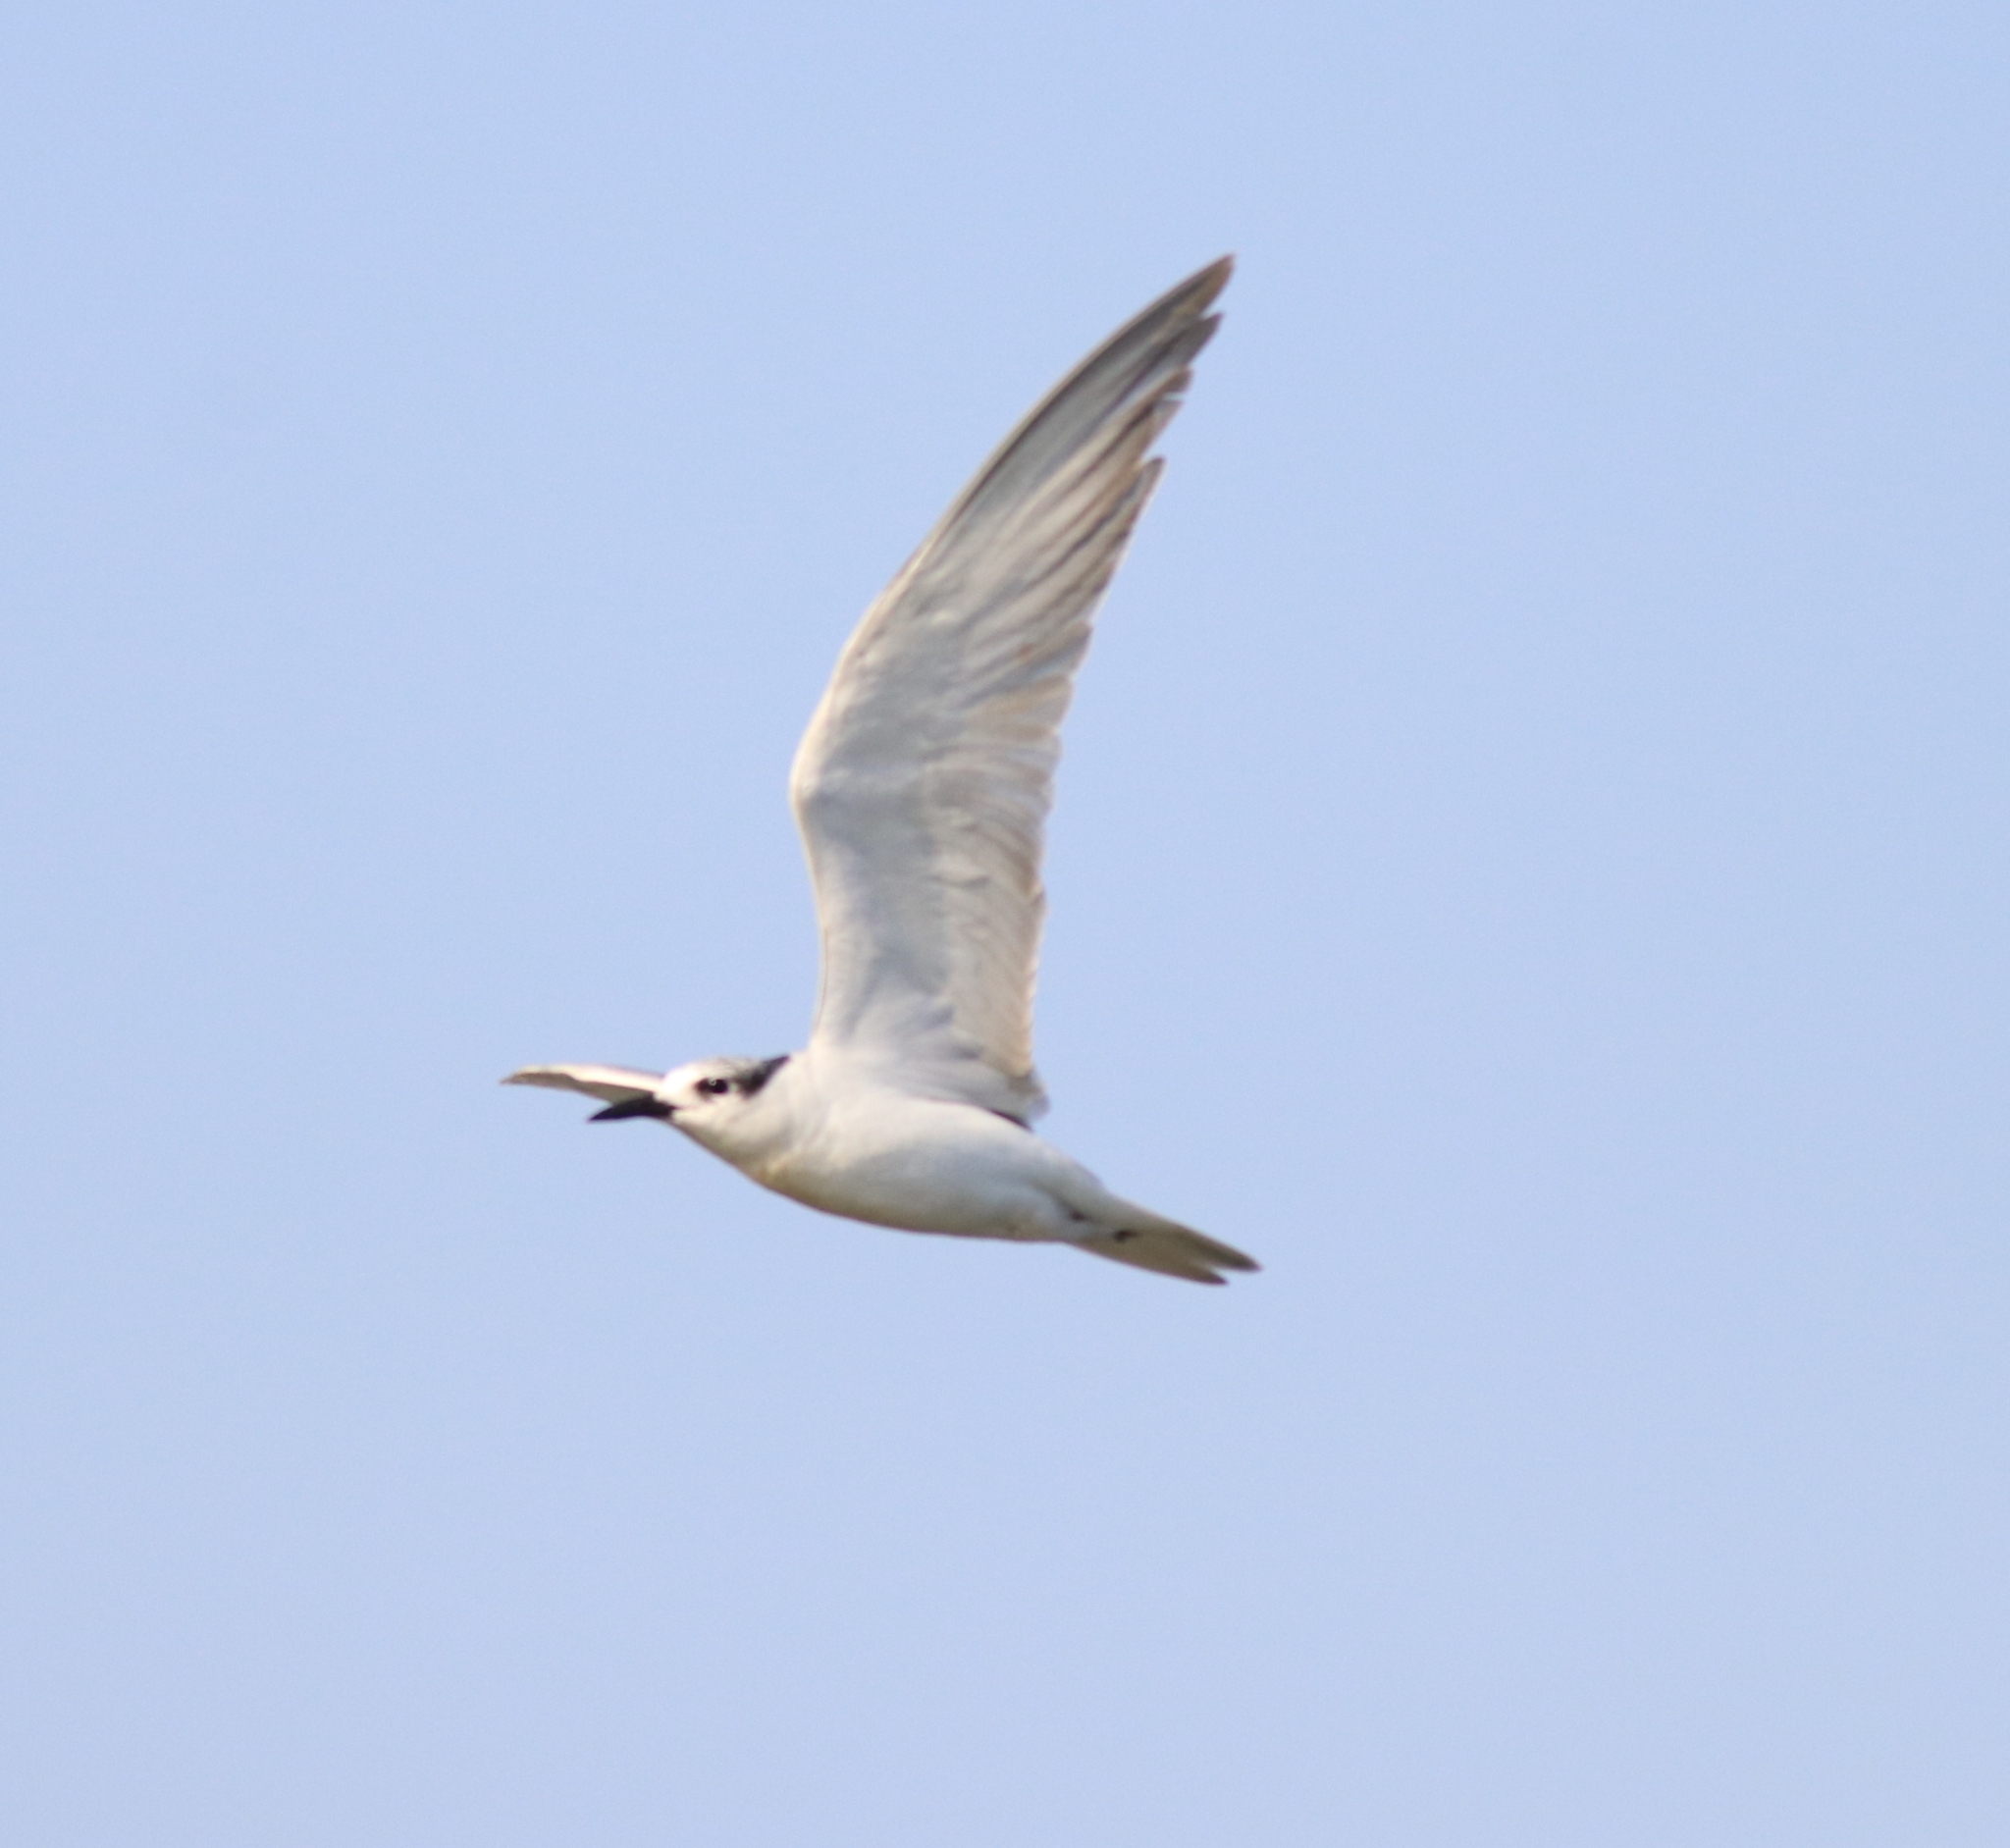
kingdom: Animalia
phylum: Chordata
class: Aves
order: Charadriiformes
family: Laridae
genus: Chlidonias
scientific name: Chlidonias hybrida
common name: Whiskered tern
